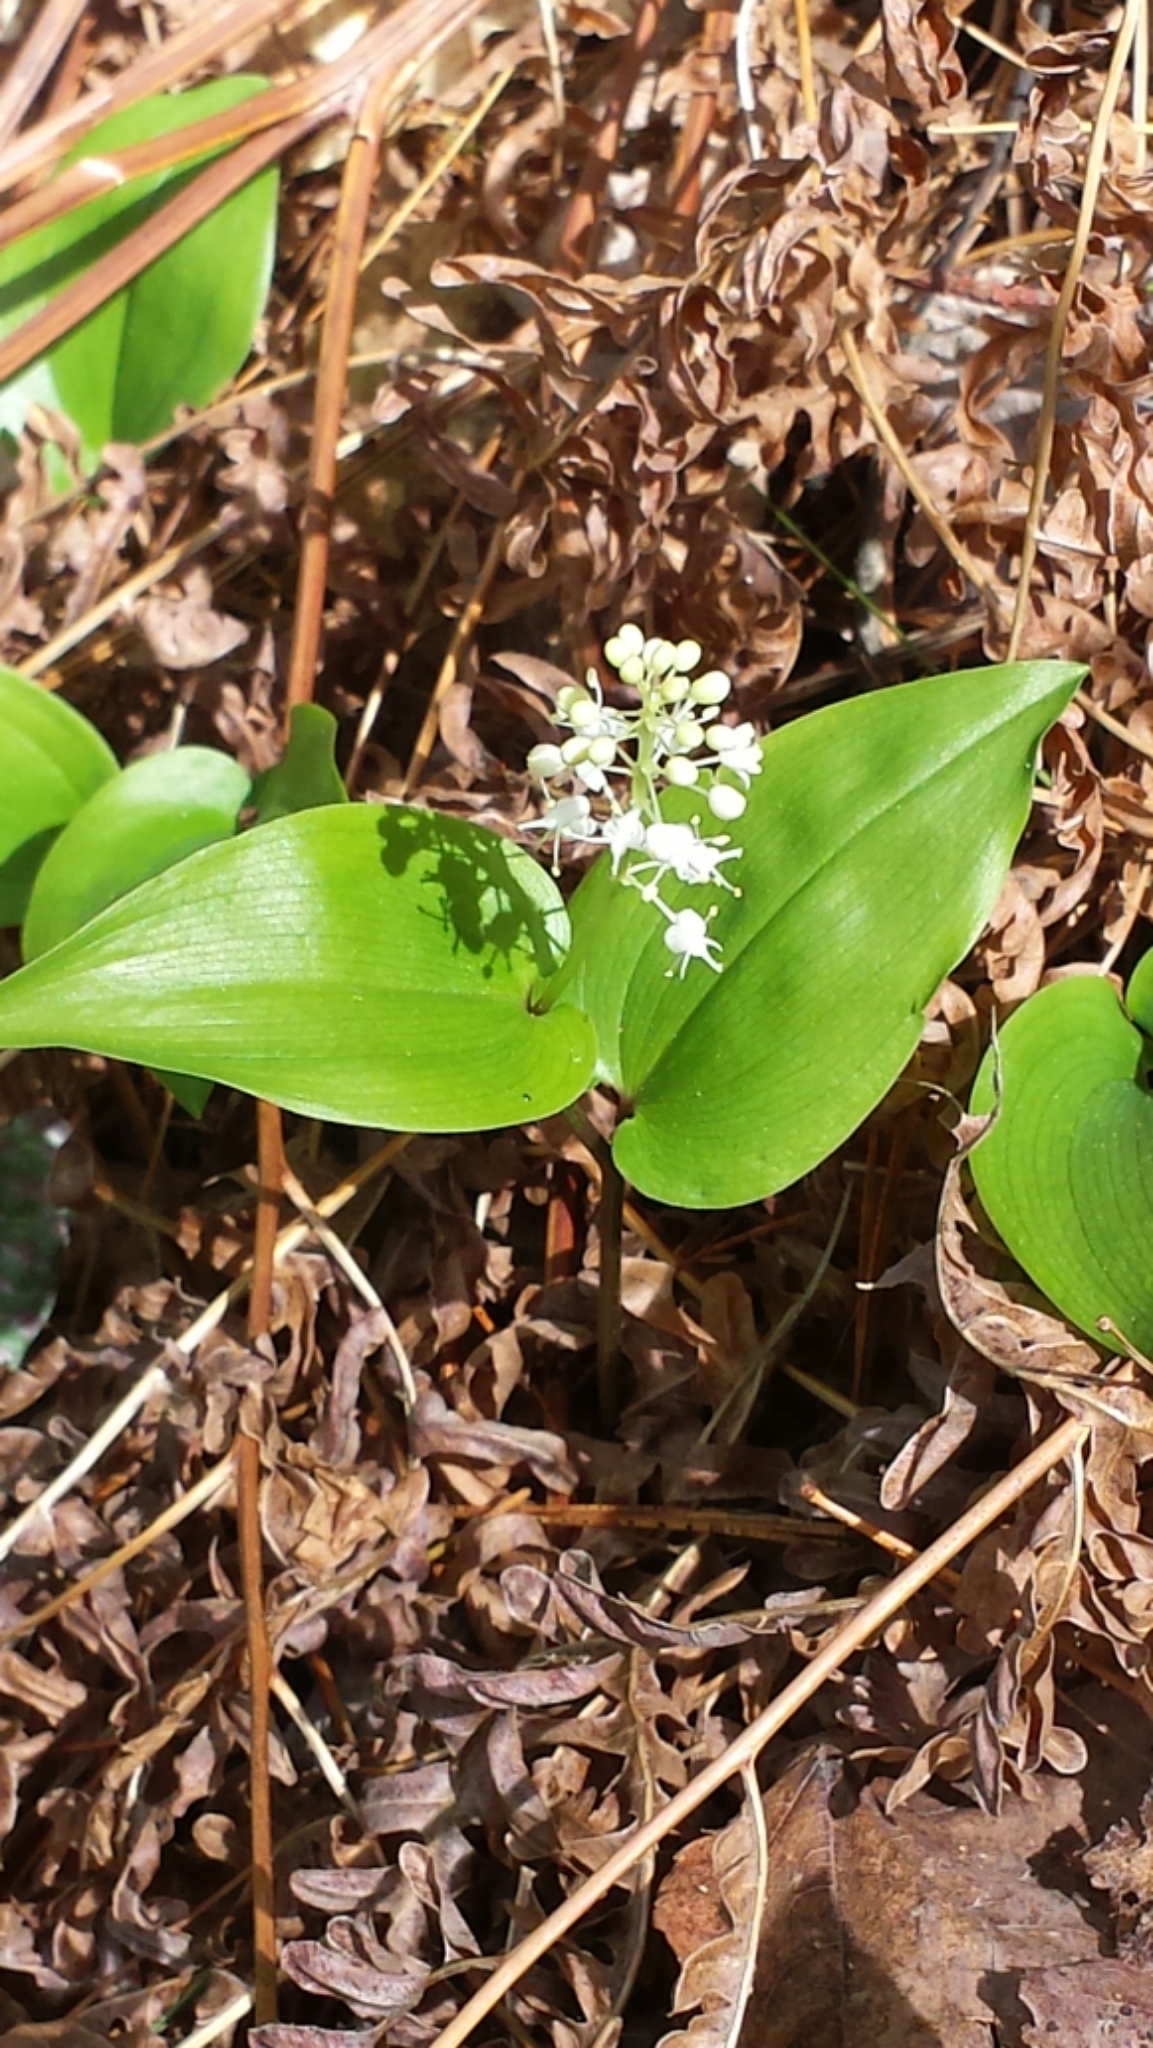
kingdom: Plantae
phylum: Tracheophyta
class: Liliopsida
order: Asparagales
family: Asparagaceae
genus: Maianthemum
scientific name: Maianthemum canadense
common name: False lily-of-the-valley
